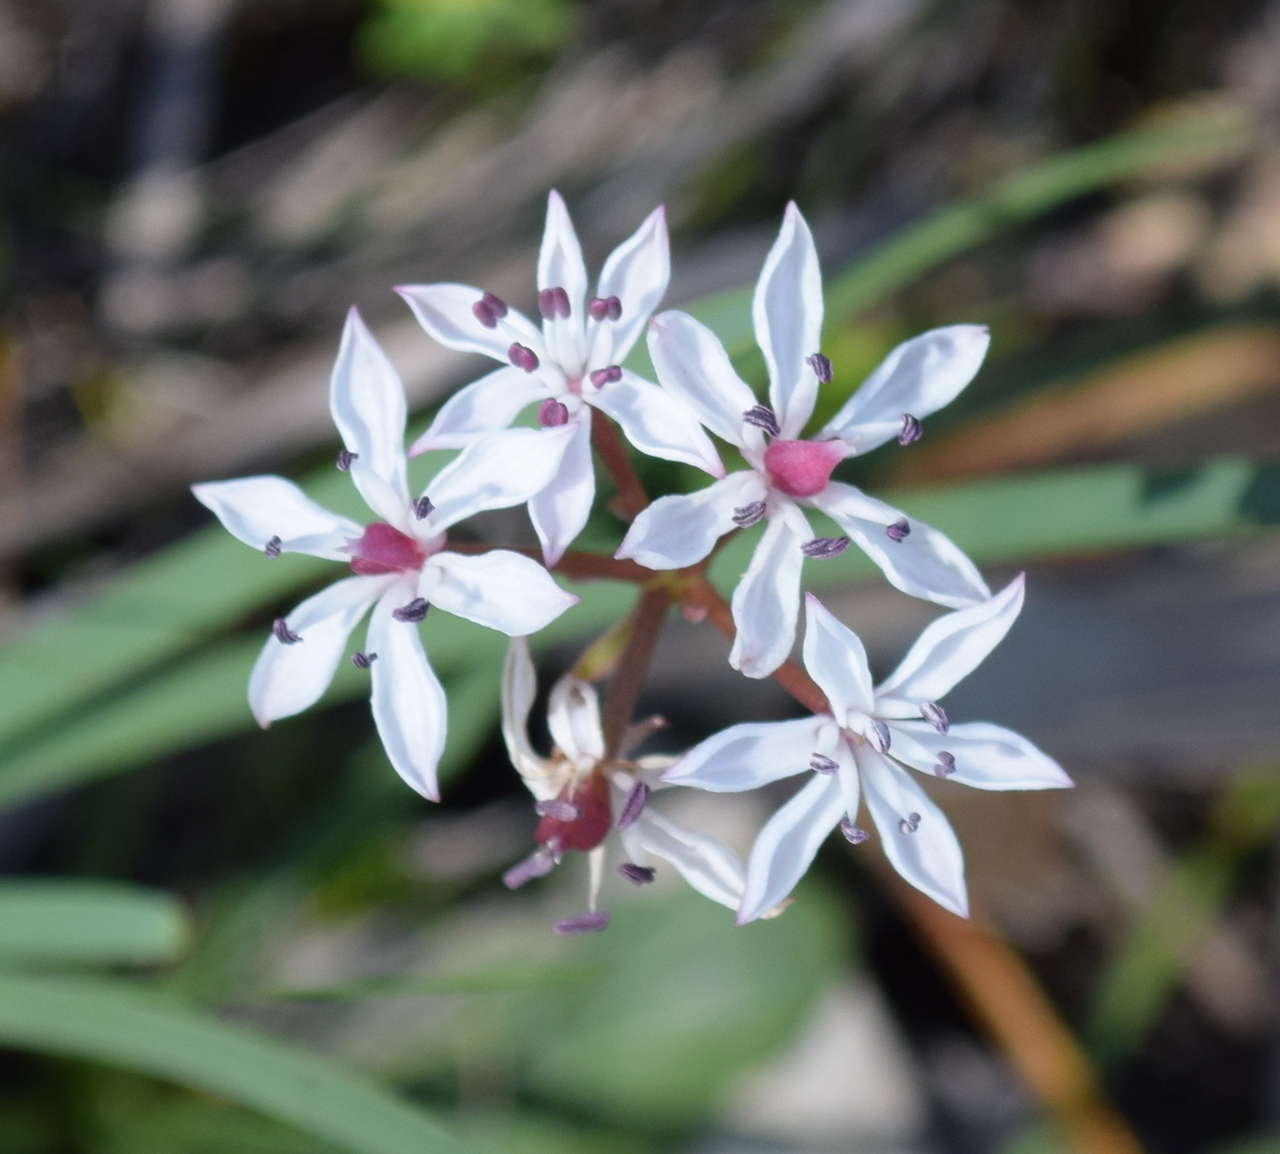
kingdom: Plantae
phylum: Tracheophyta
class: Liliopsida
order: Liliales
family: Colchicaceae
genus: Burchardia
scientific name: Burchardia umbellata
